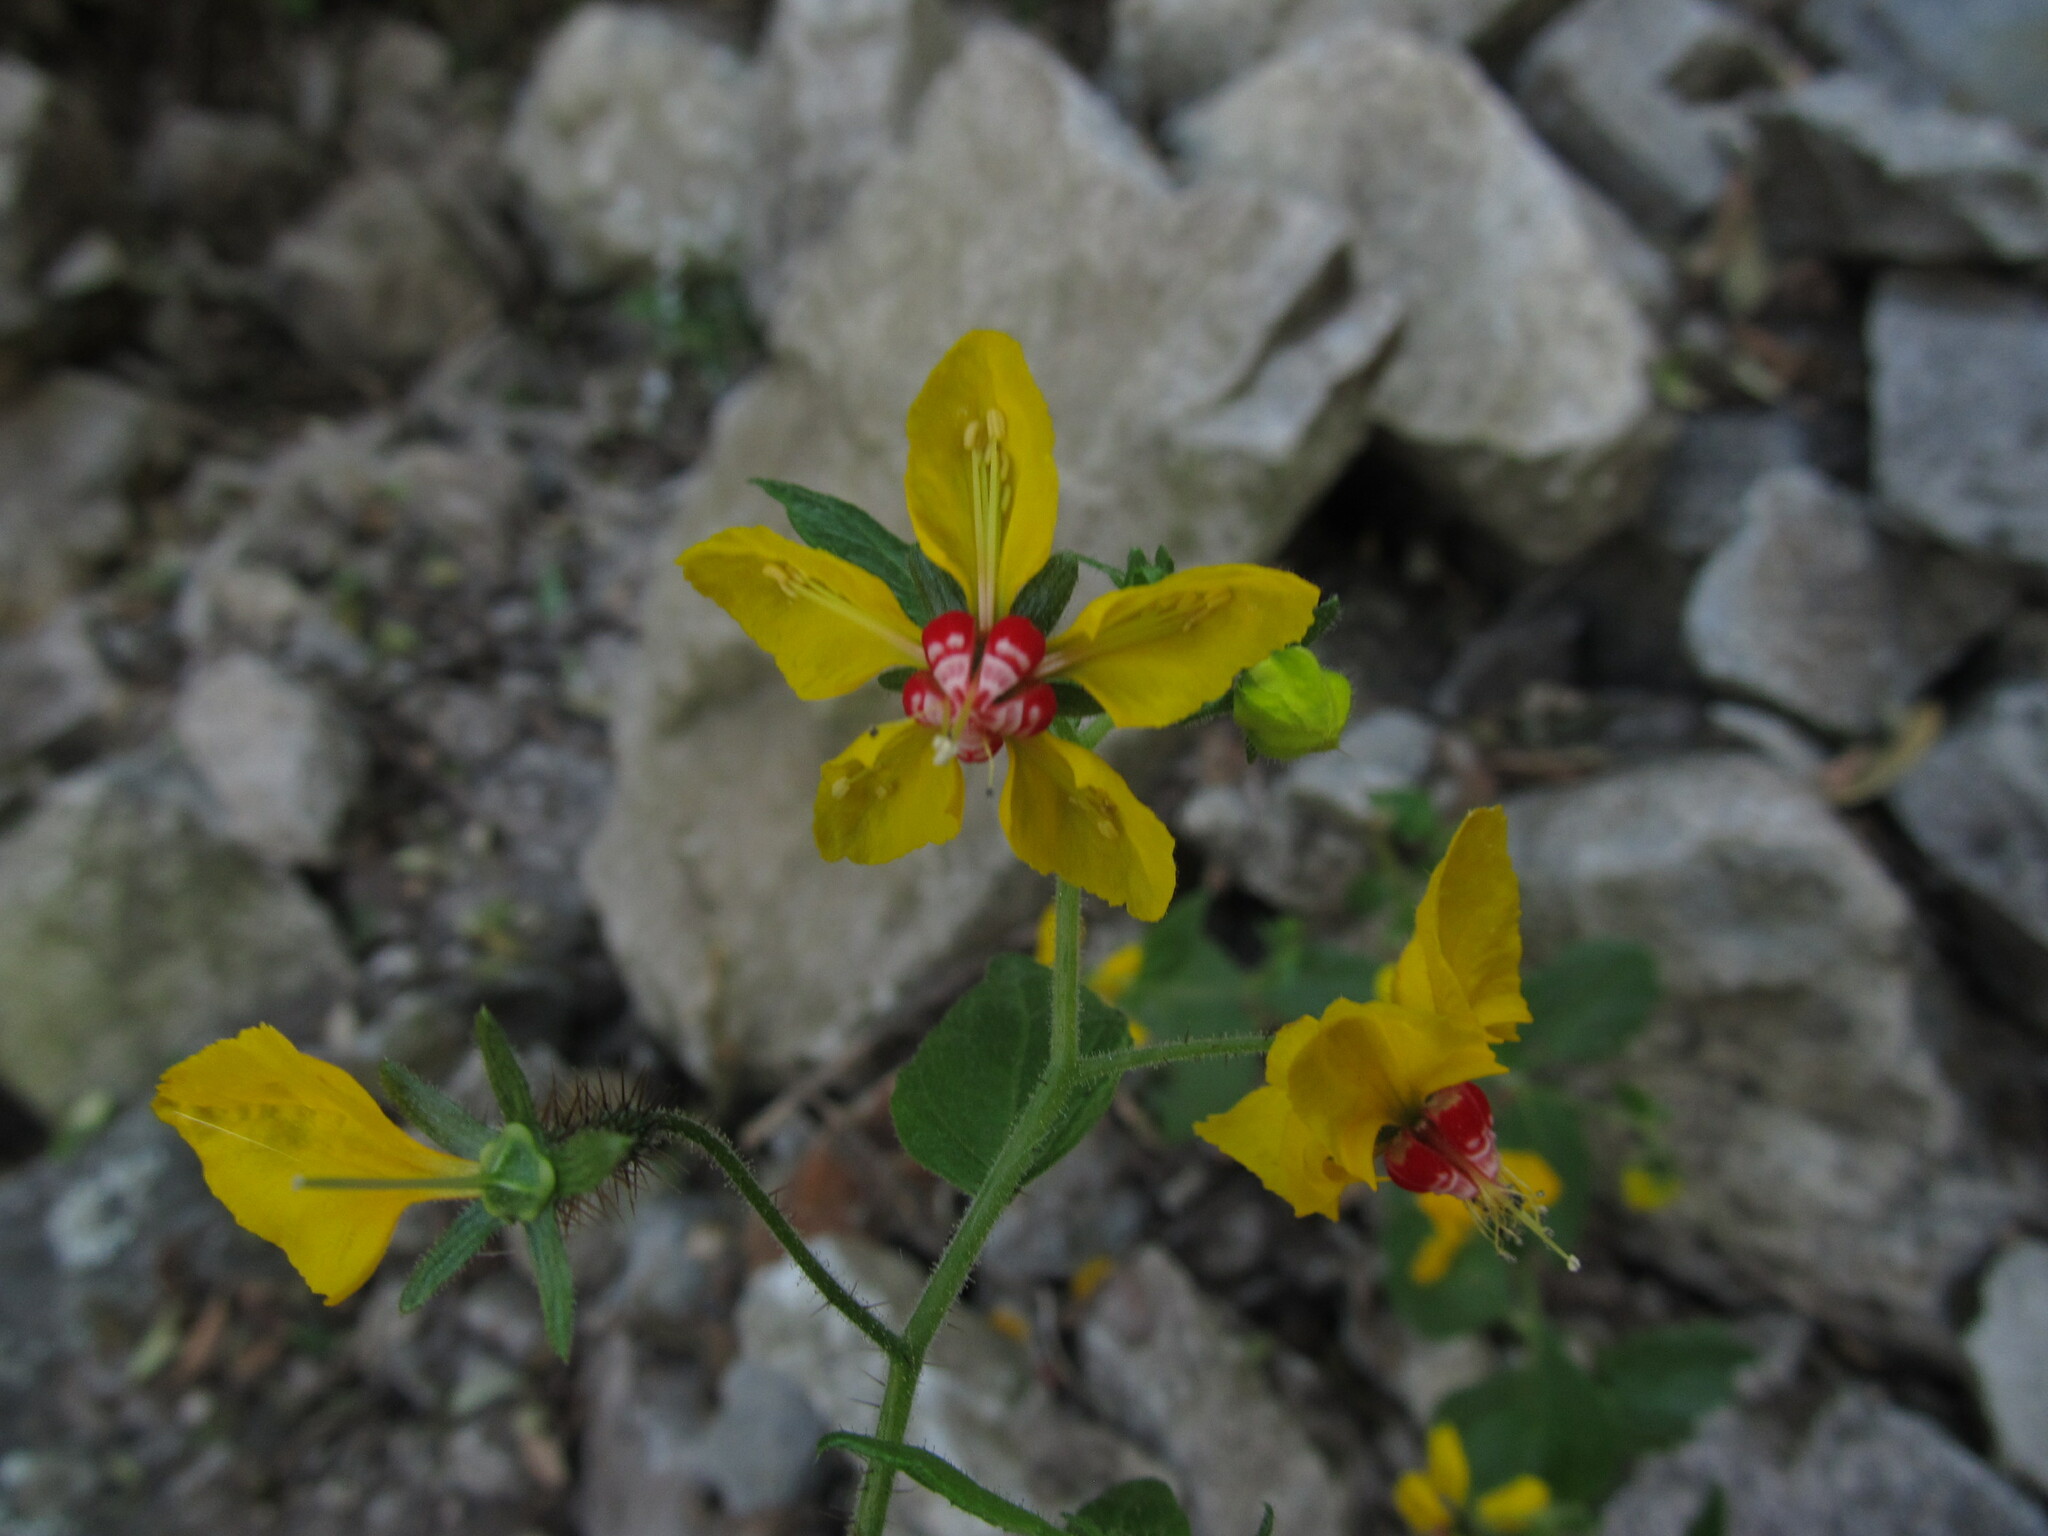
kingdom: Plantae
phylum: Tracheophyta
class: Magnoliopsida
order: Cornales
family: Loasaceae
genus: Nasa
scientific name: Nasa solaria
